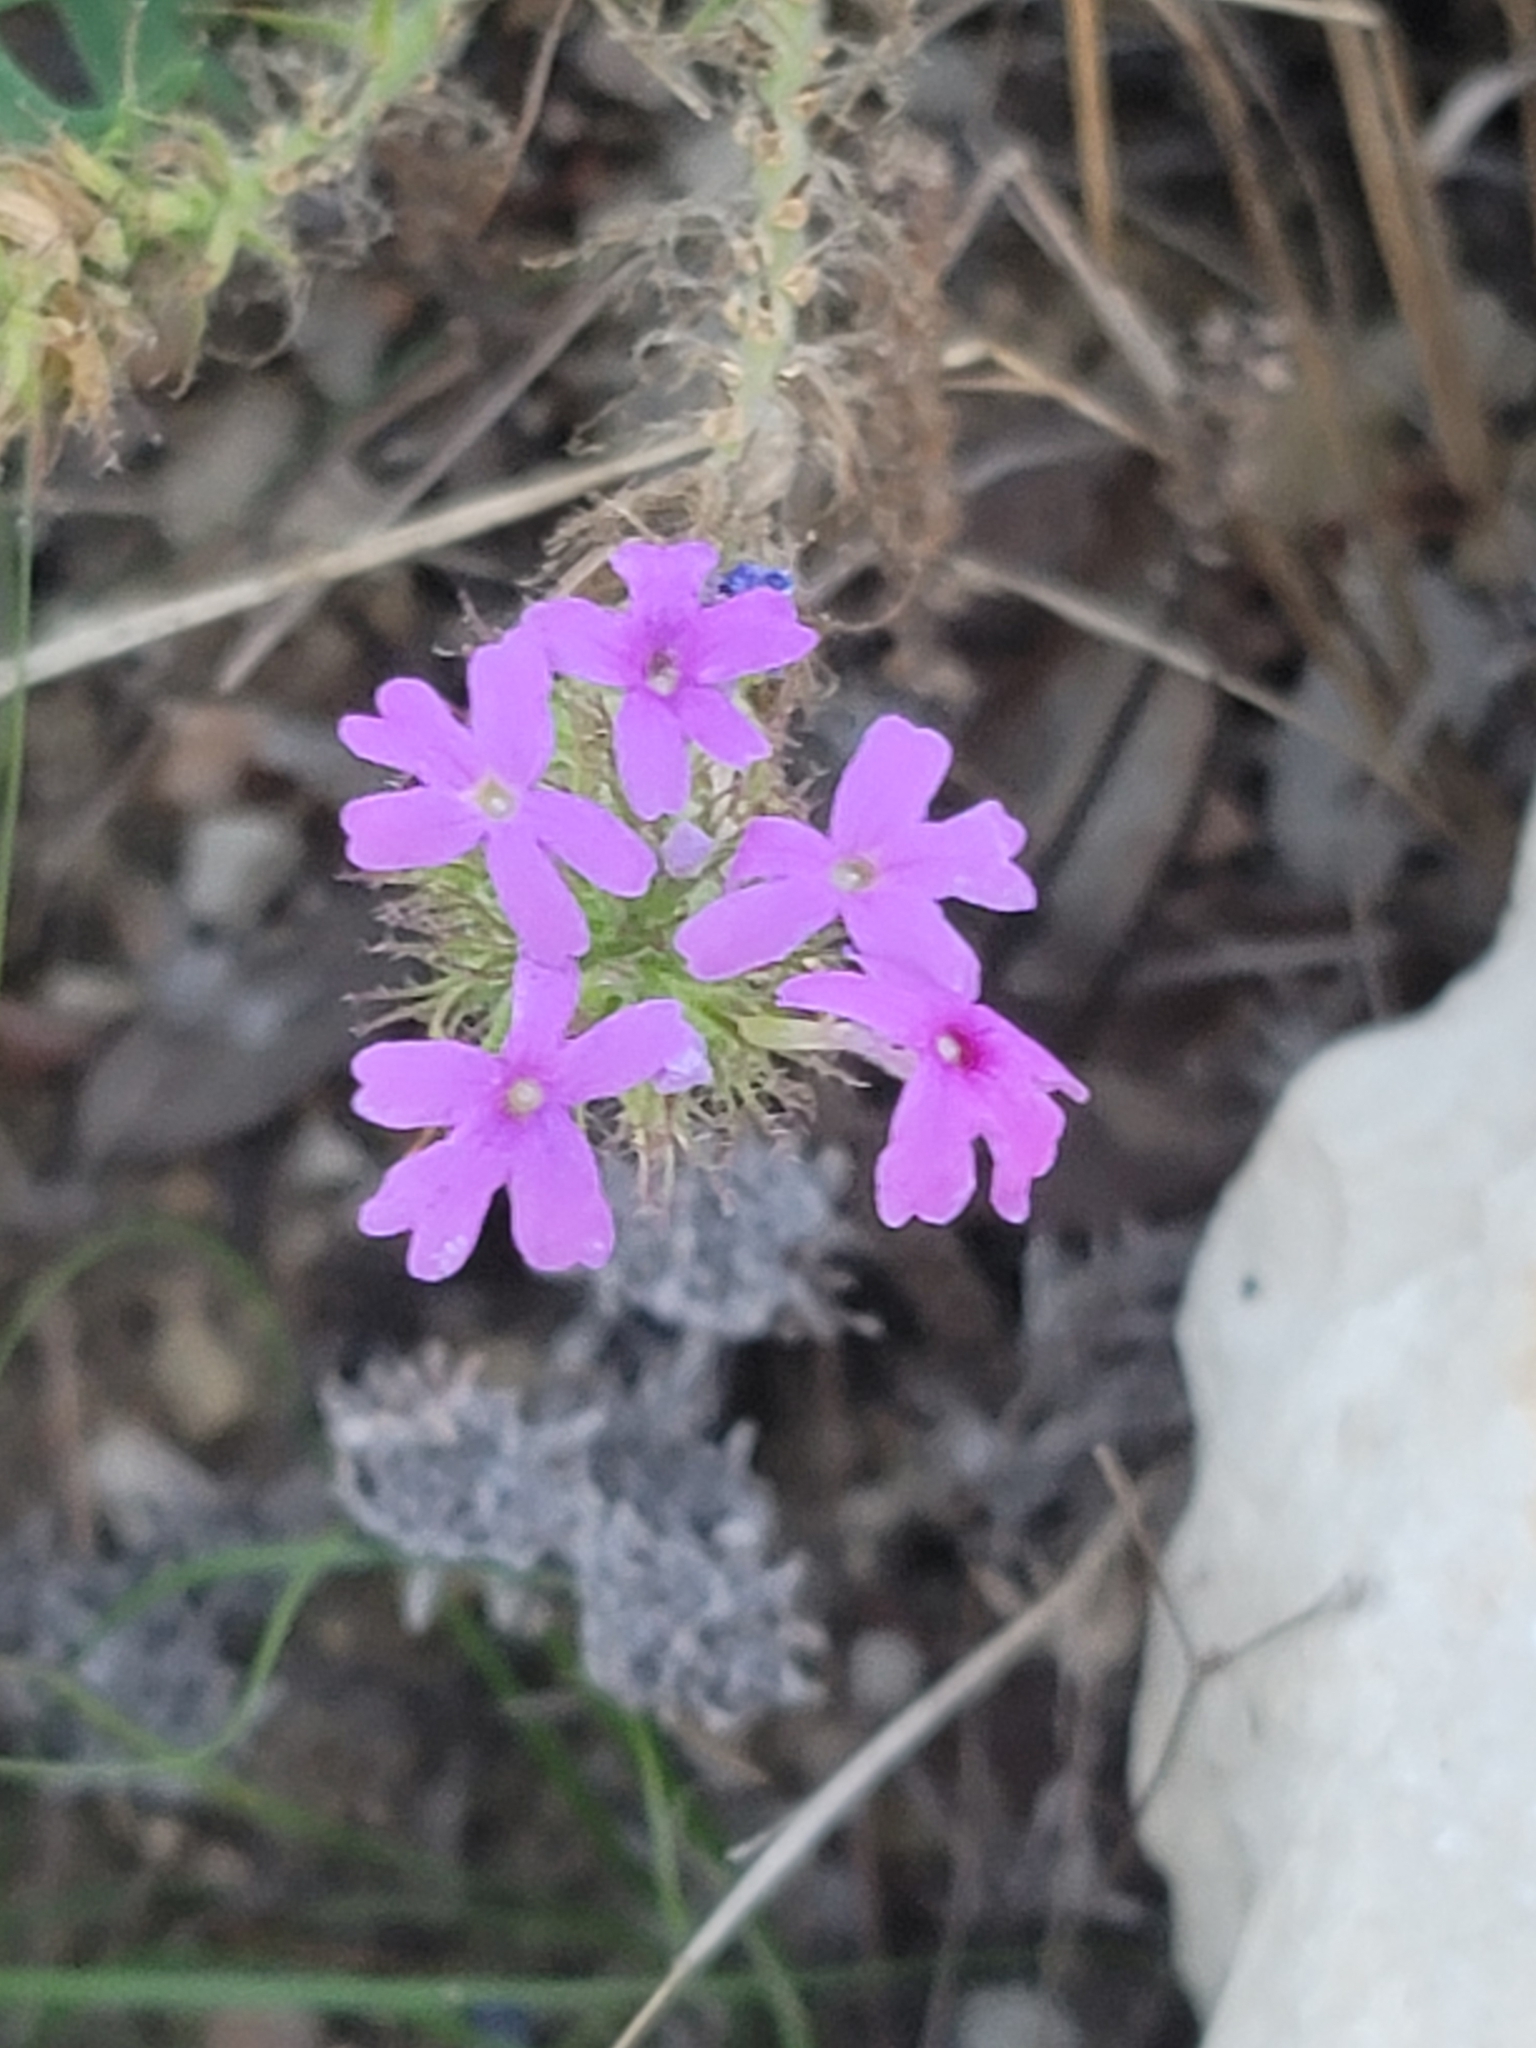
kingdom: Plantae
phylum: Tracheophyta
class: Magnoliopsida
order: Lamiales
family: Verbenaceae
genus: Verbena
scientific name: Verbena bipinnatifida
